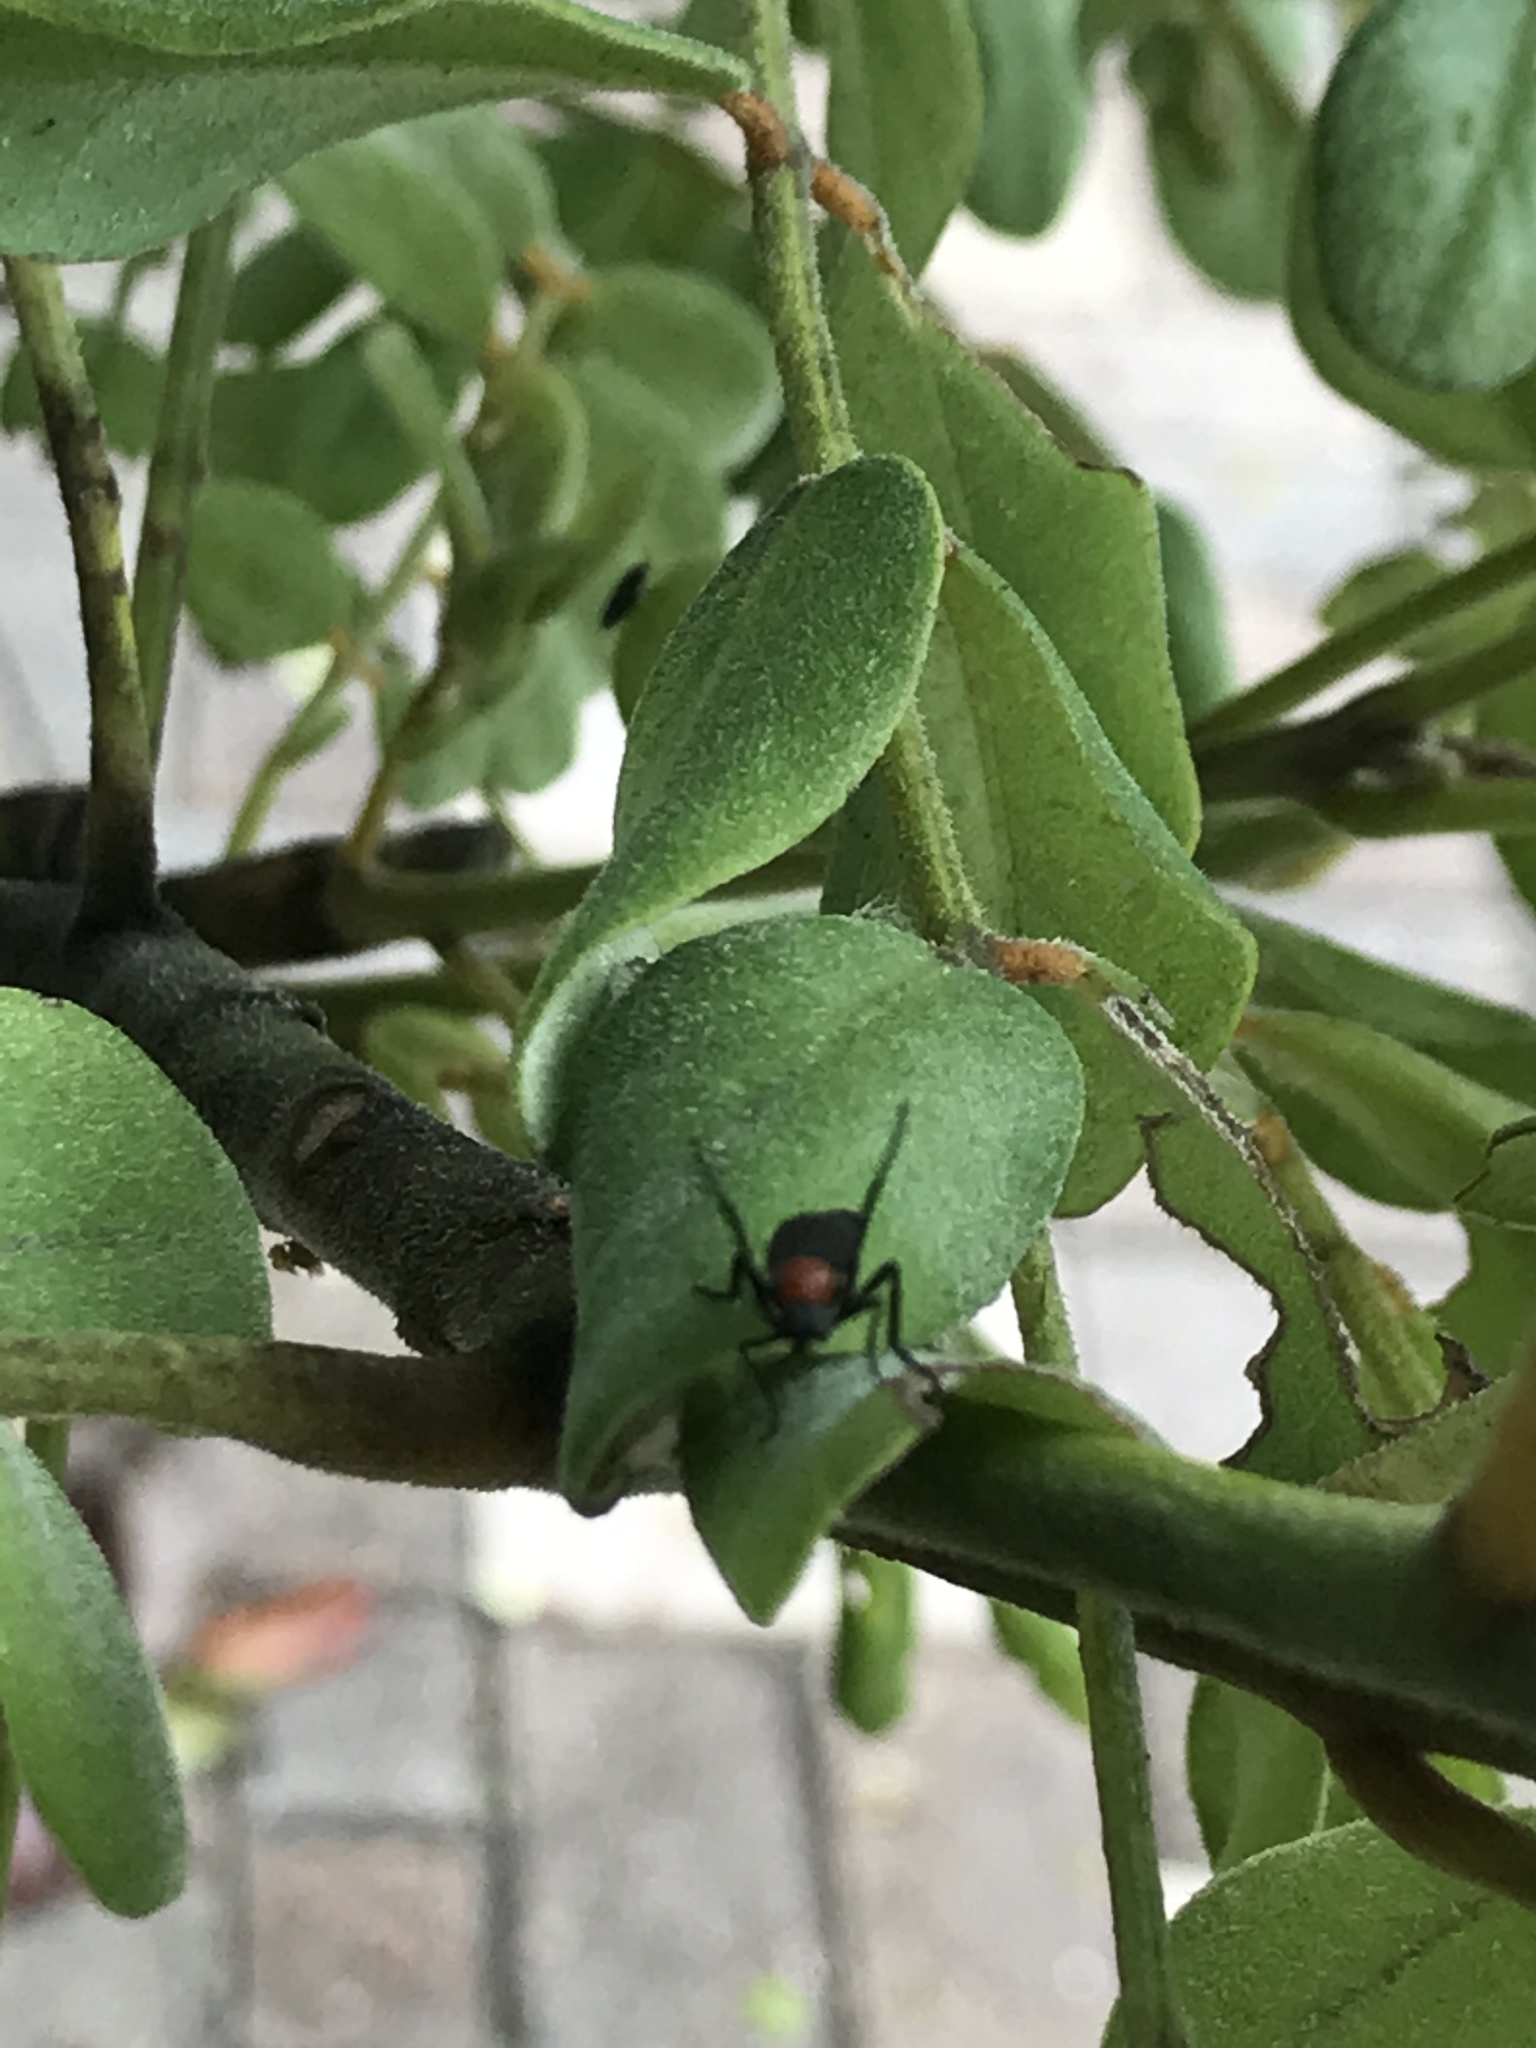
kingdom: Animalia
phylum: Arthropoda
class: Insecta
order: Diptera
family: Bibionidae
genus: Plecia
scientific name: Plecia nearctica
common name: March fly
